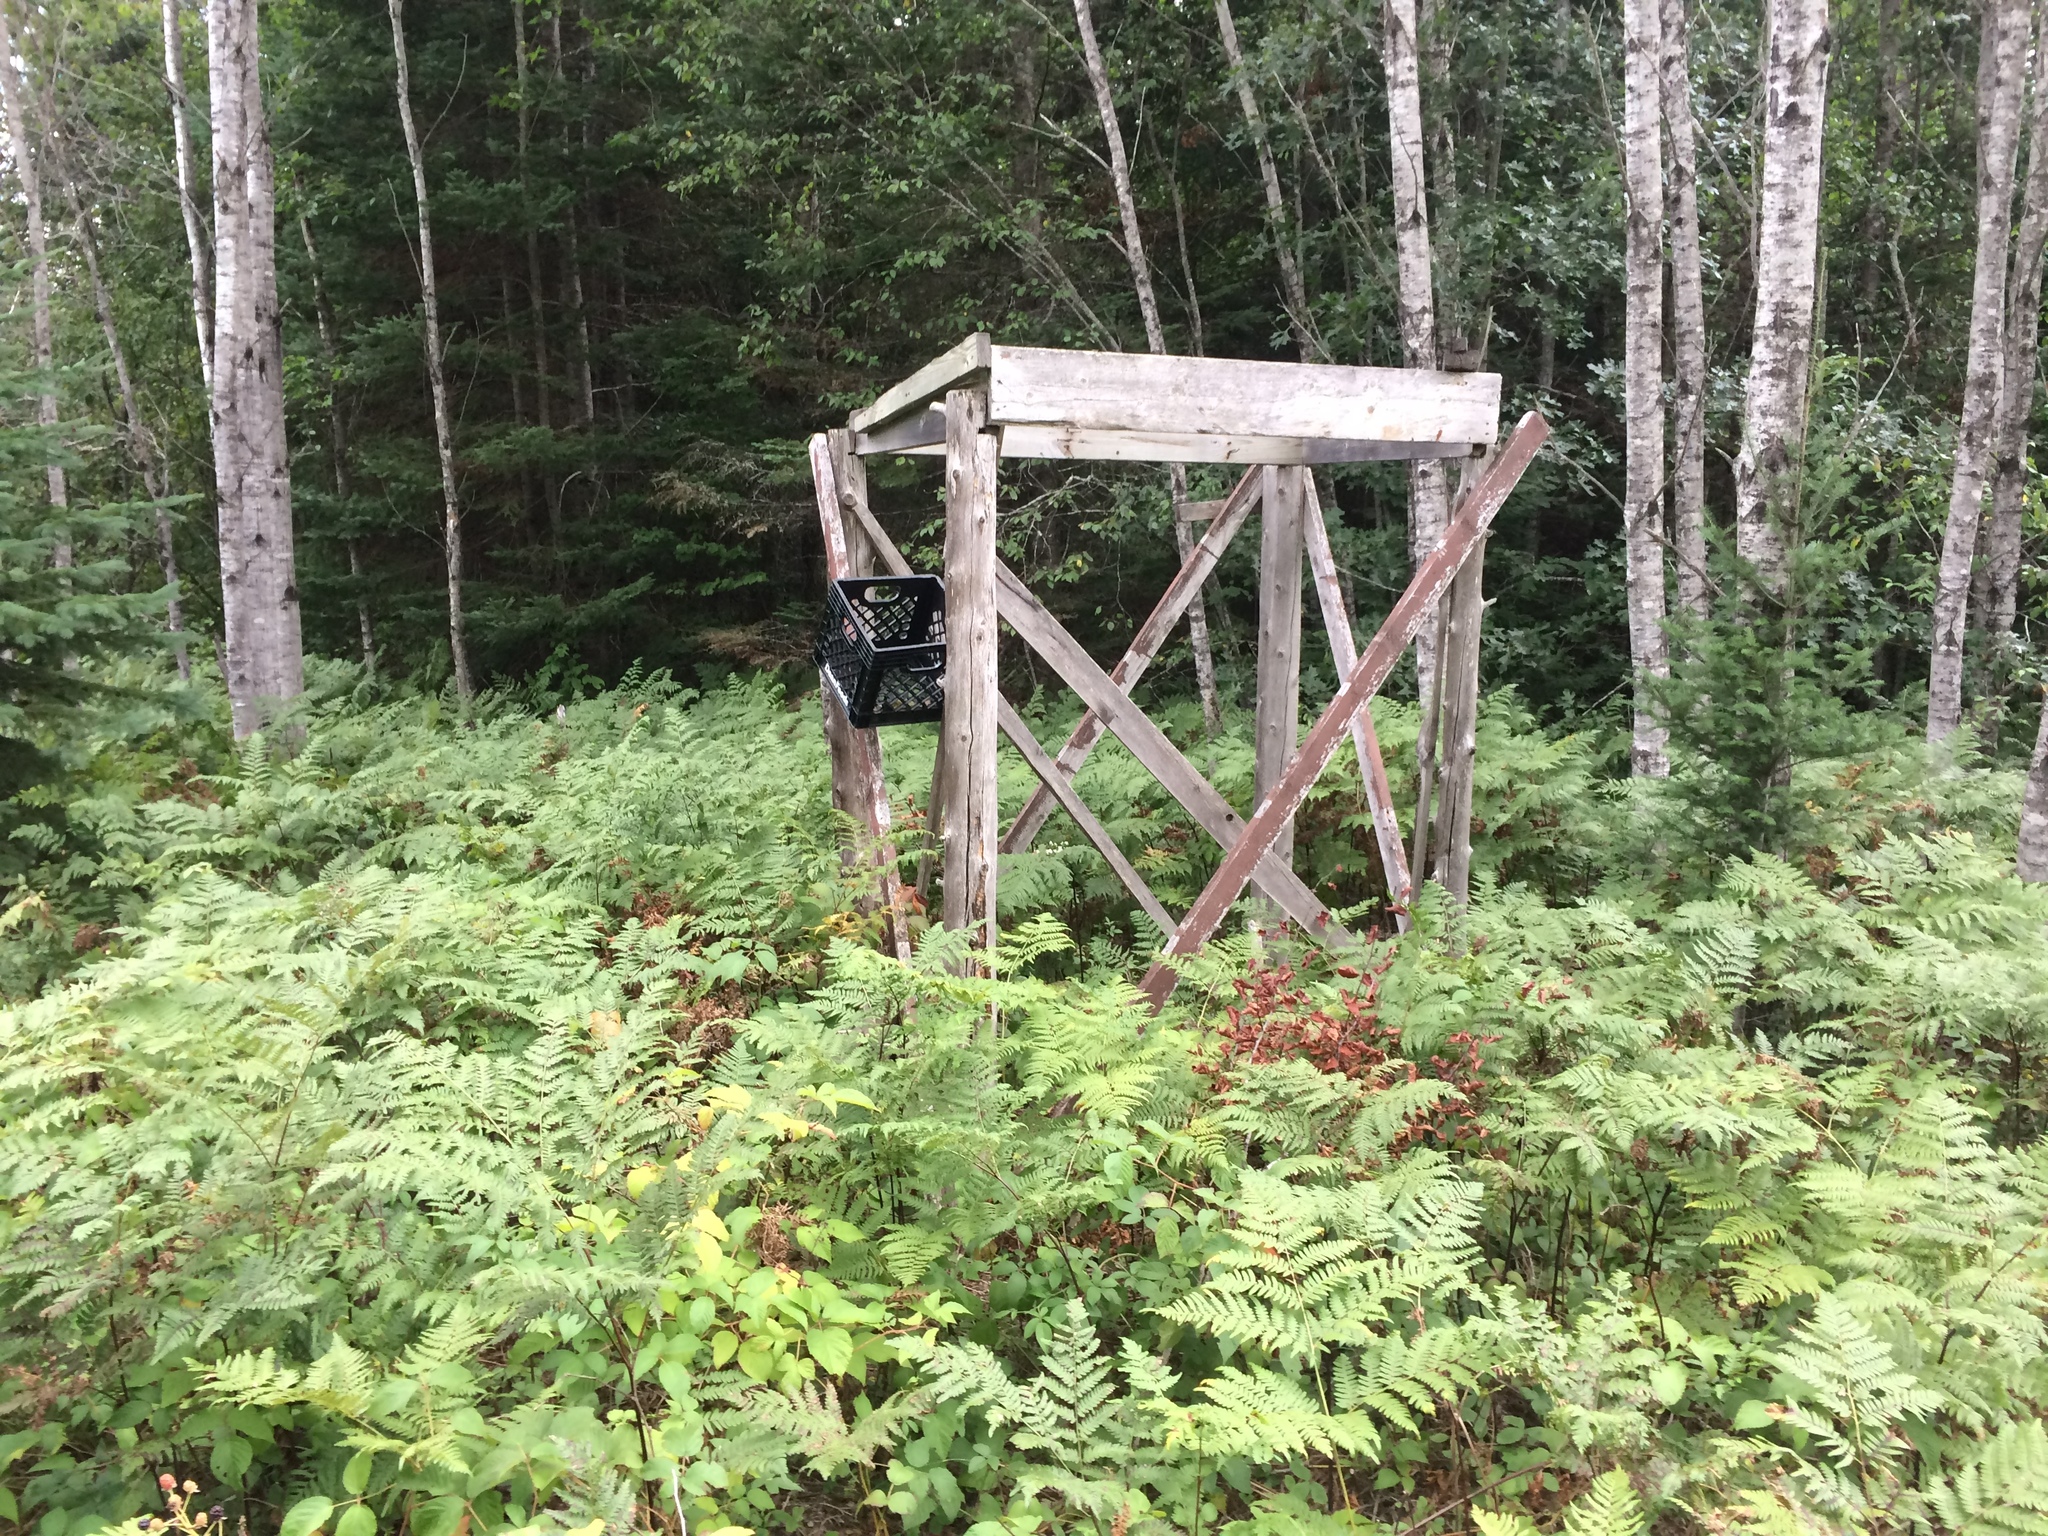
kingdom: Plantae
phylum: Tracheophyta
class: Polypodiopsida
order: Polypodiales
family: Dennstaedtiaceae
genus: Pteridium
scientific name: Pteridium aquilinum
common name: Bracken
